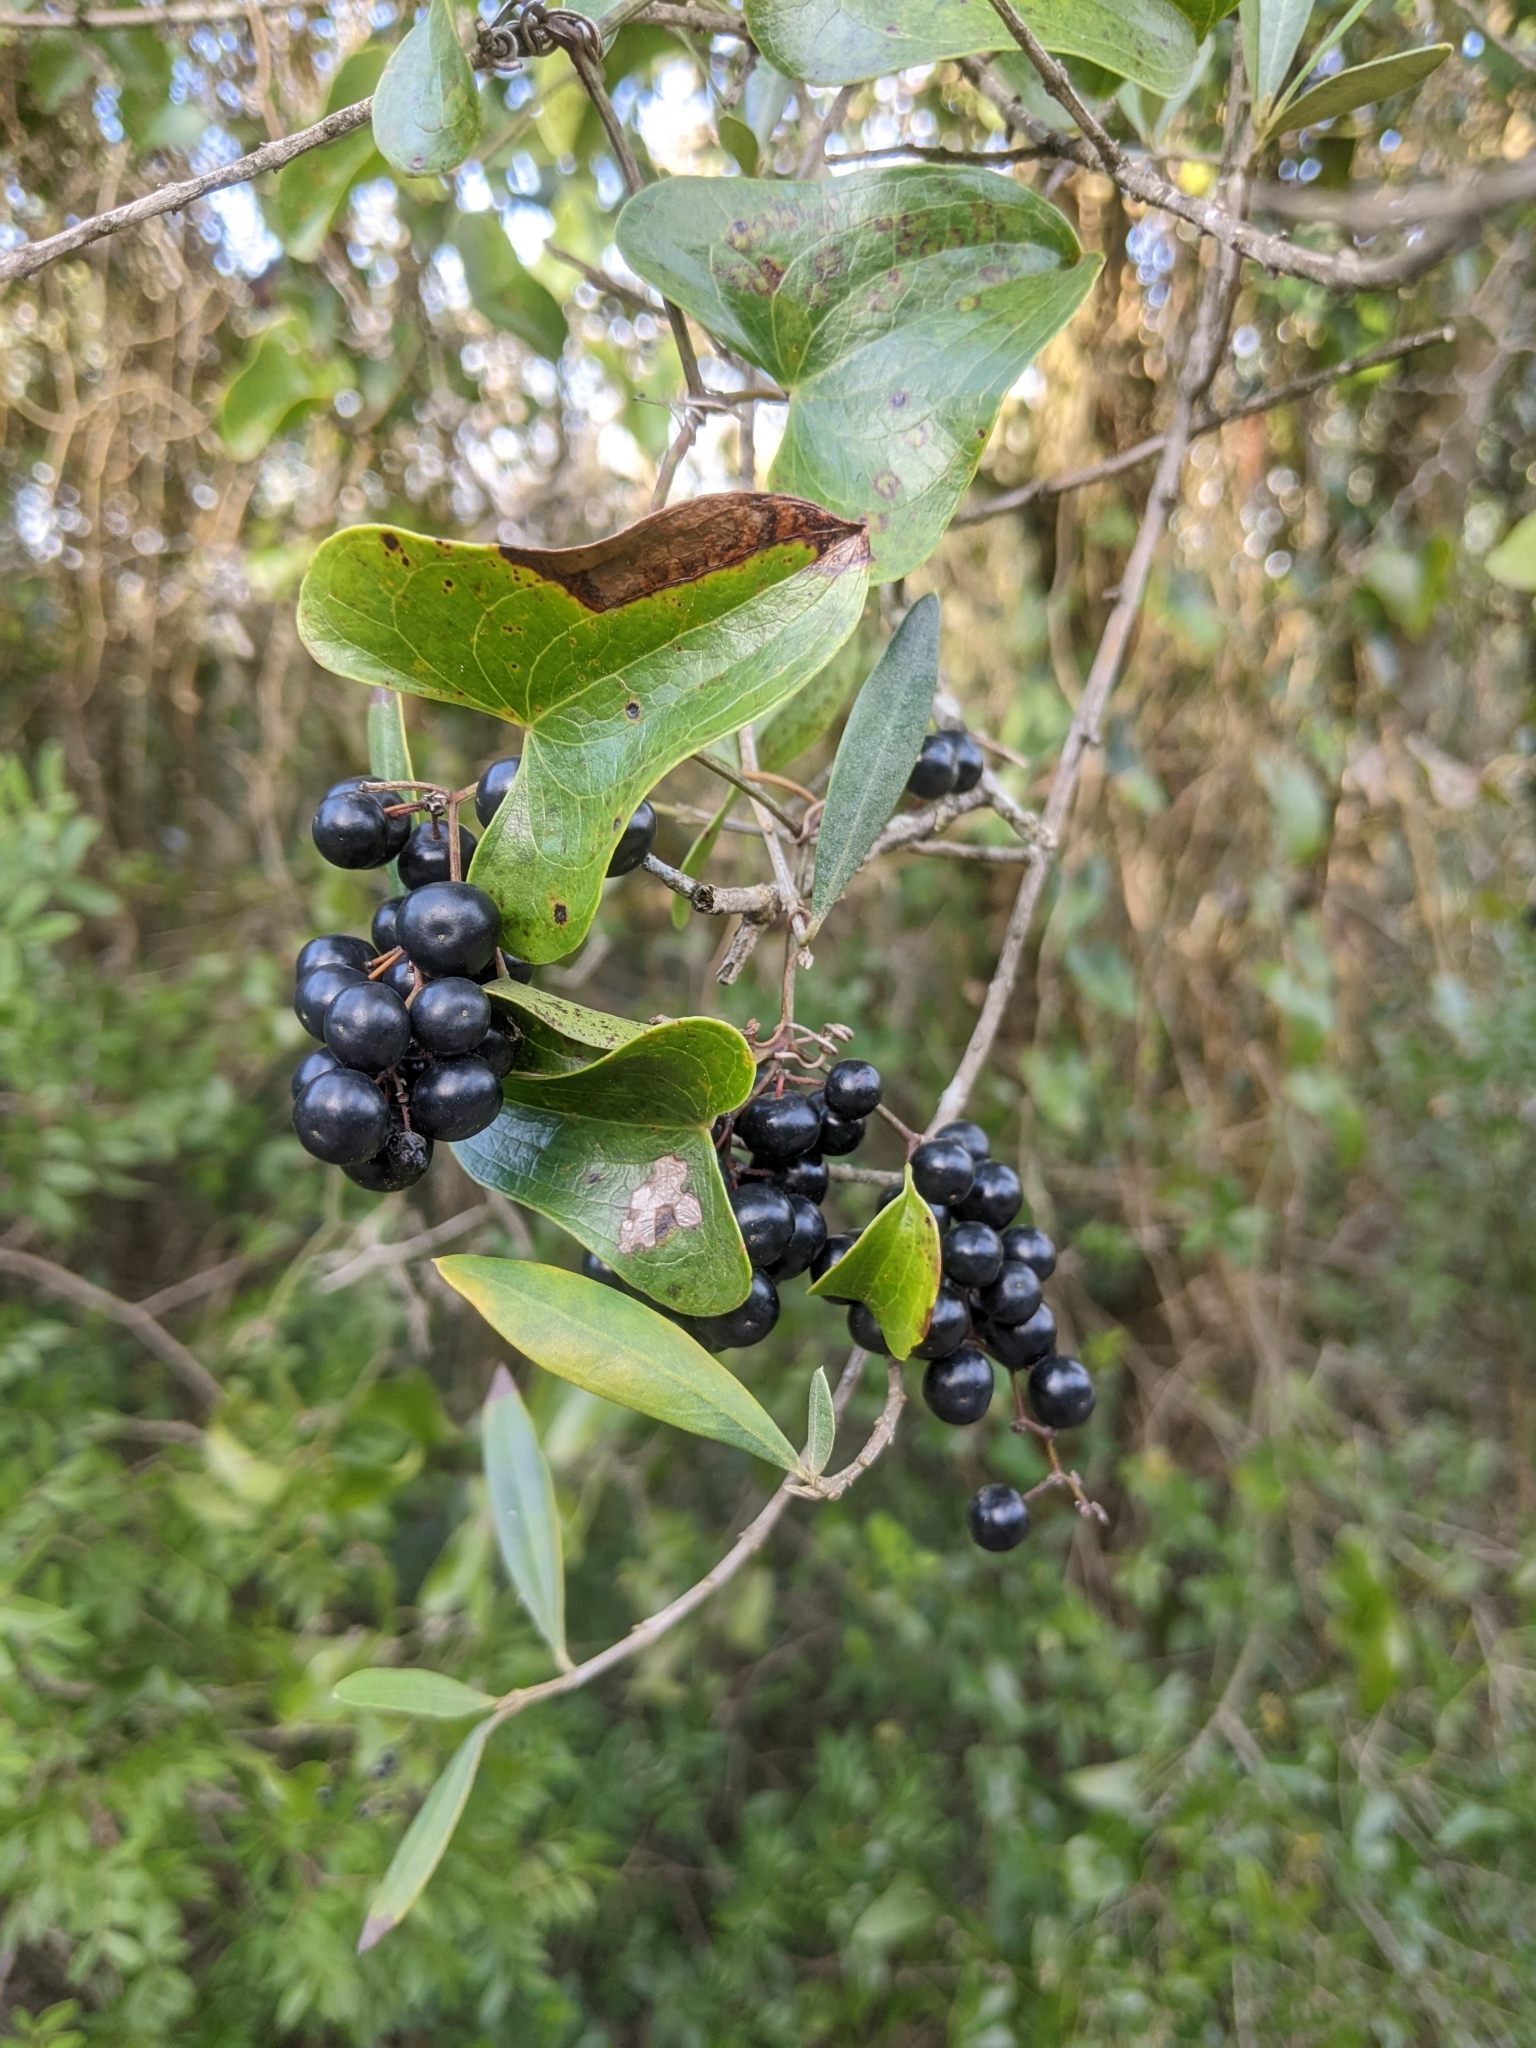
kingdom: Plantae
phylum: Tracheophyta
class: Liliopsida
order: Liliales
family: Smilacaceae
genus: Smilax
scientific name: Smilax aspera
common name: Common smilax
